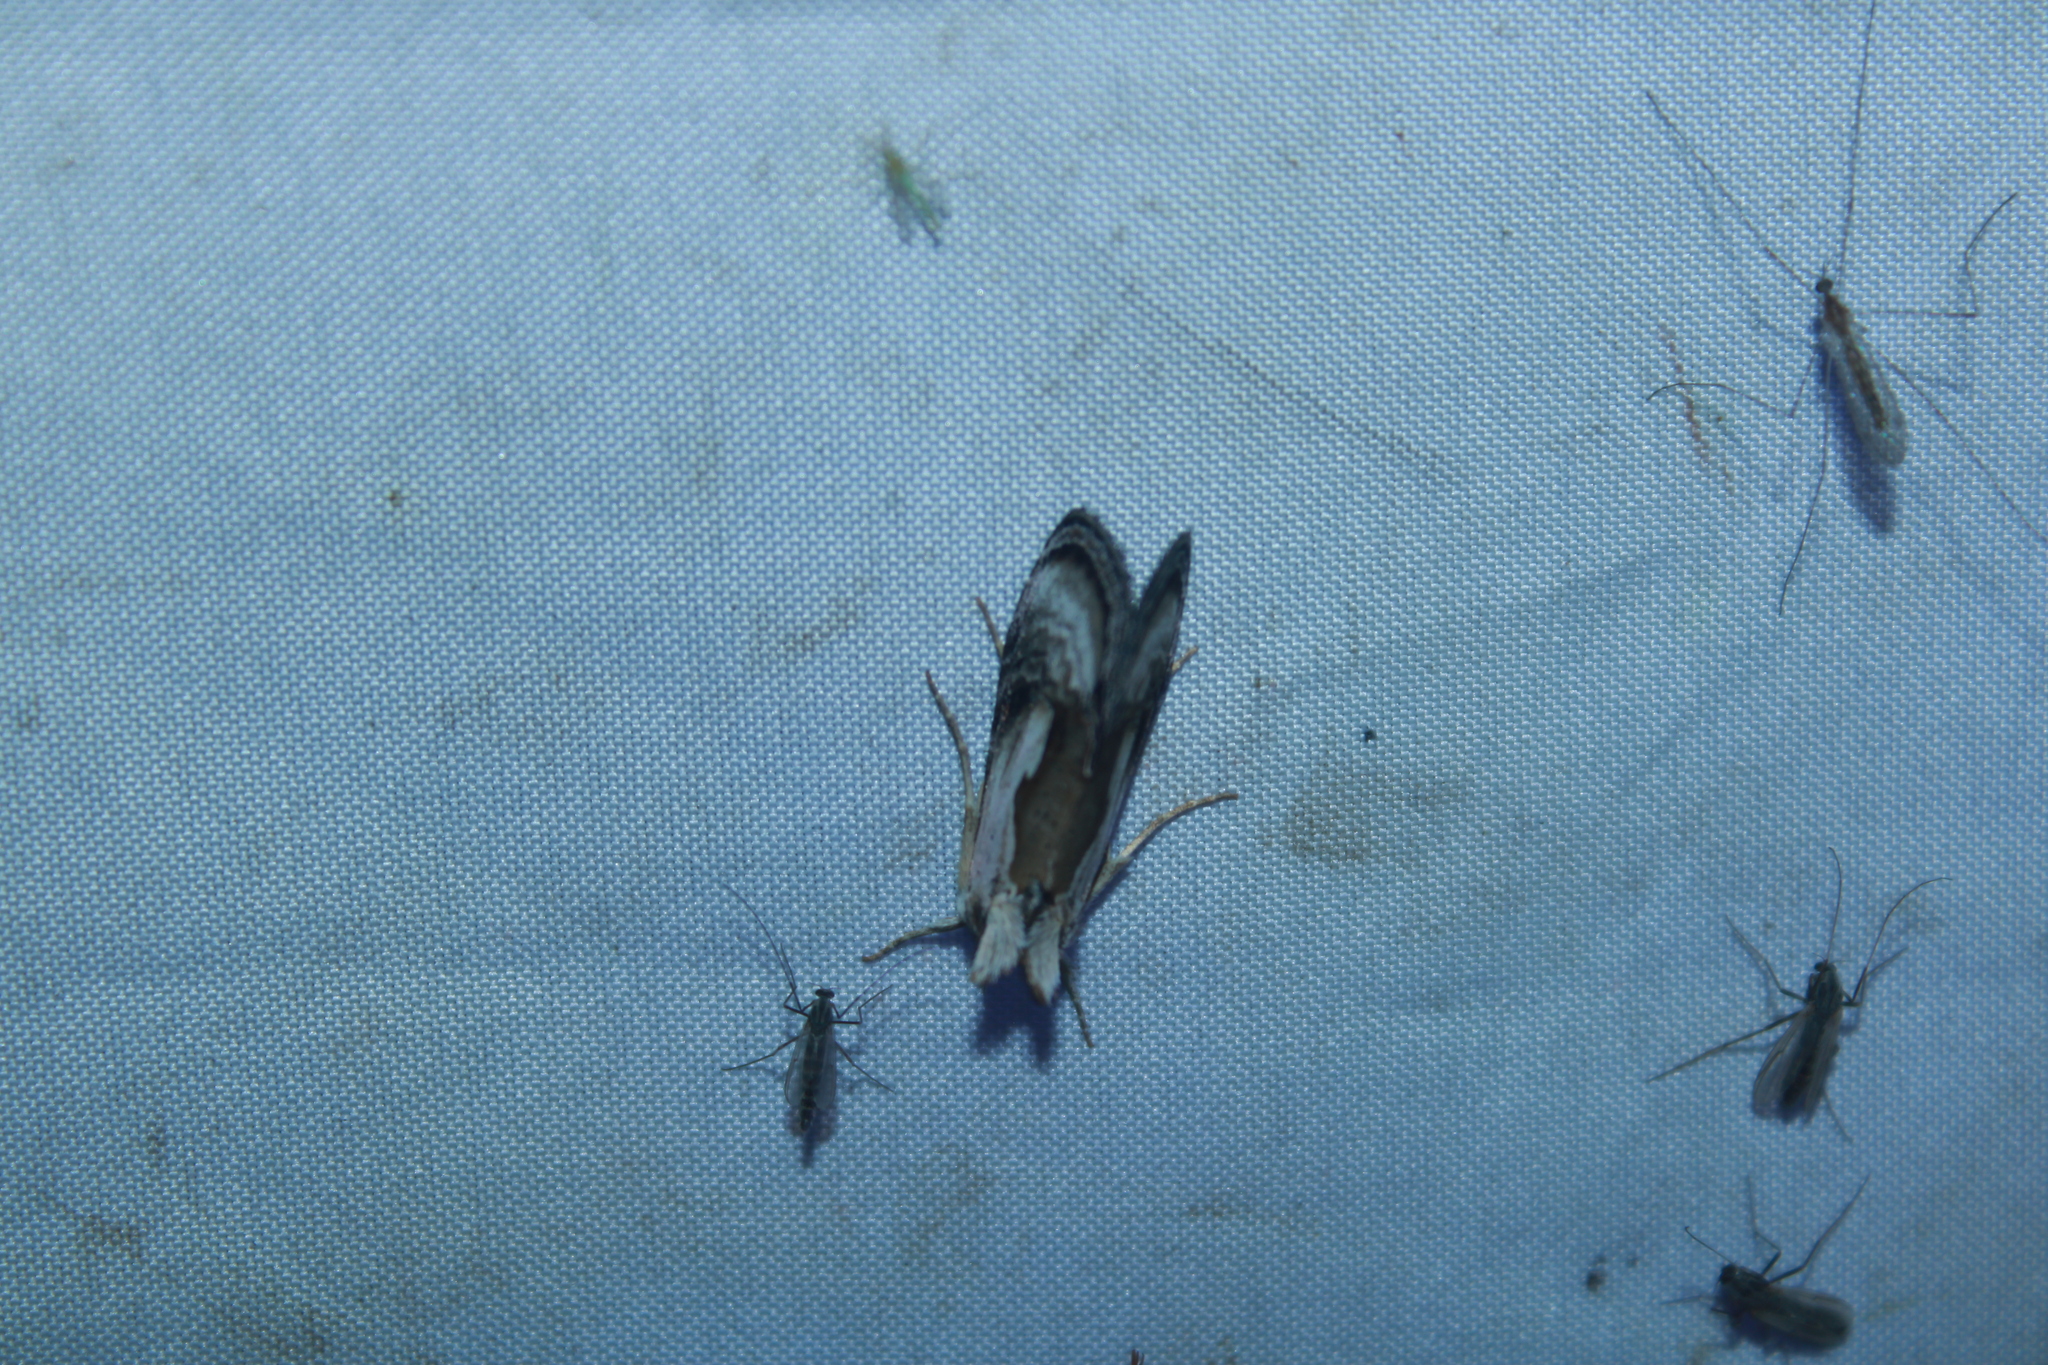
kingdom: Animalia
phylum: Arthropoda
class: Insecta
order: Lepidoptera
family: Noctuidae
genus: Chrysanympha
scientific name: Chrysanympha formosa
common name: Formosa looper moth
